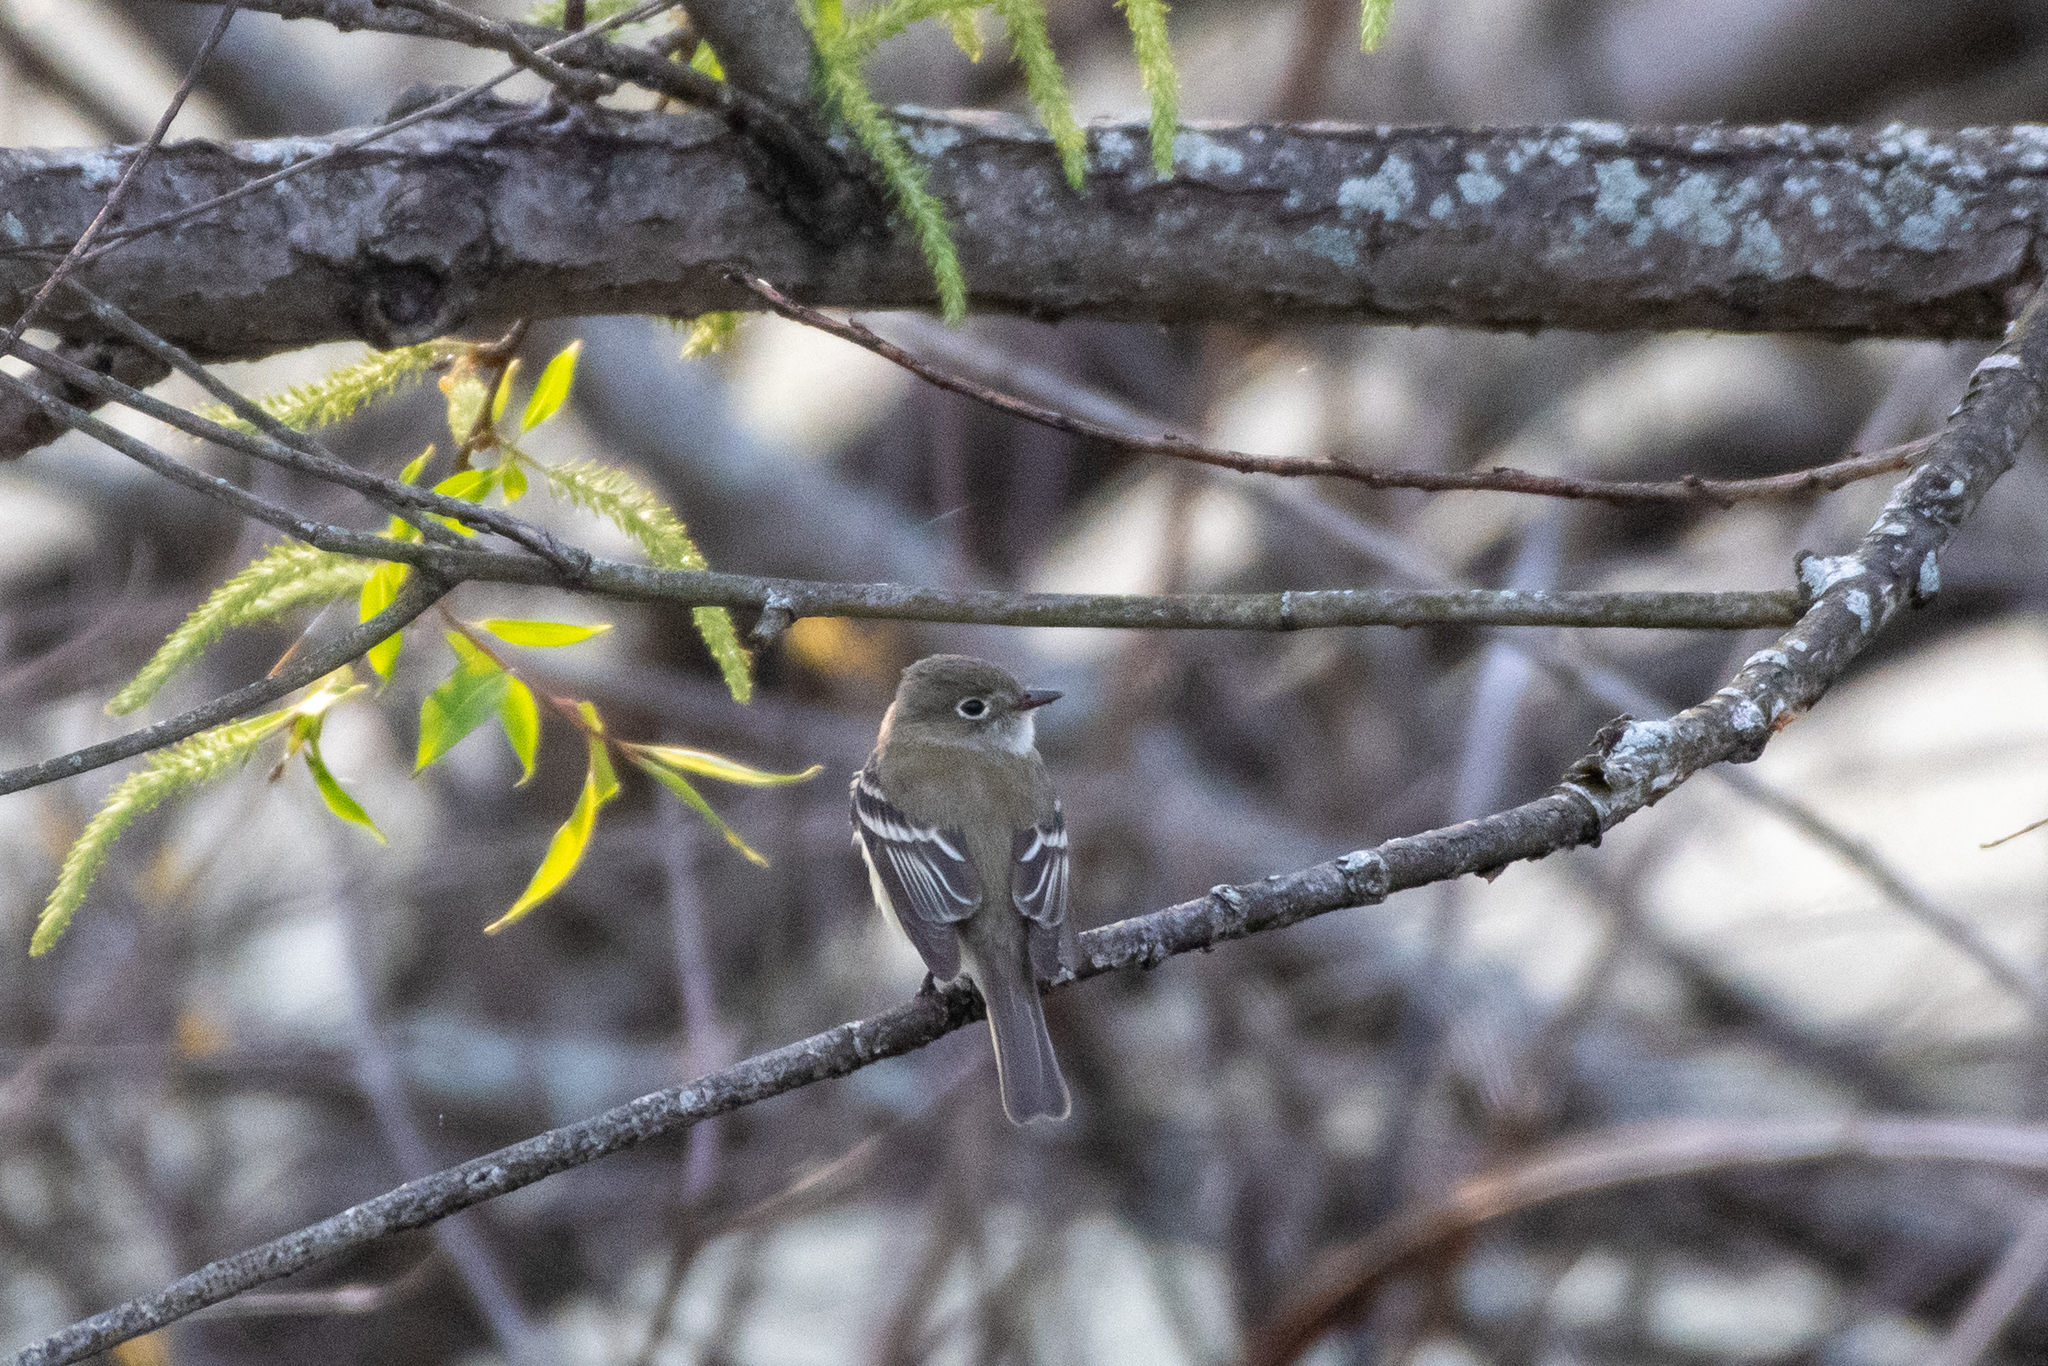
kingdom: Animalia
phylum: Chordata
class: Aves
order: Passeriformes
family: Tyrannidae
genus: Empidonax
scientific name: Empidonax minimus
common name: Least flycatcher
